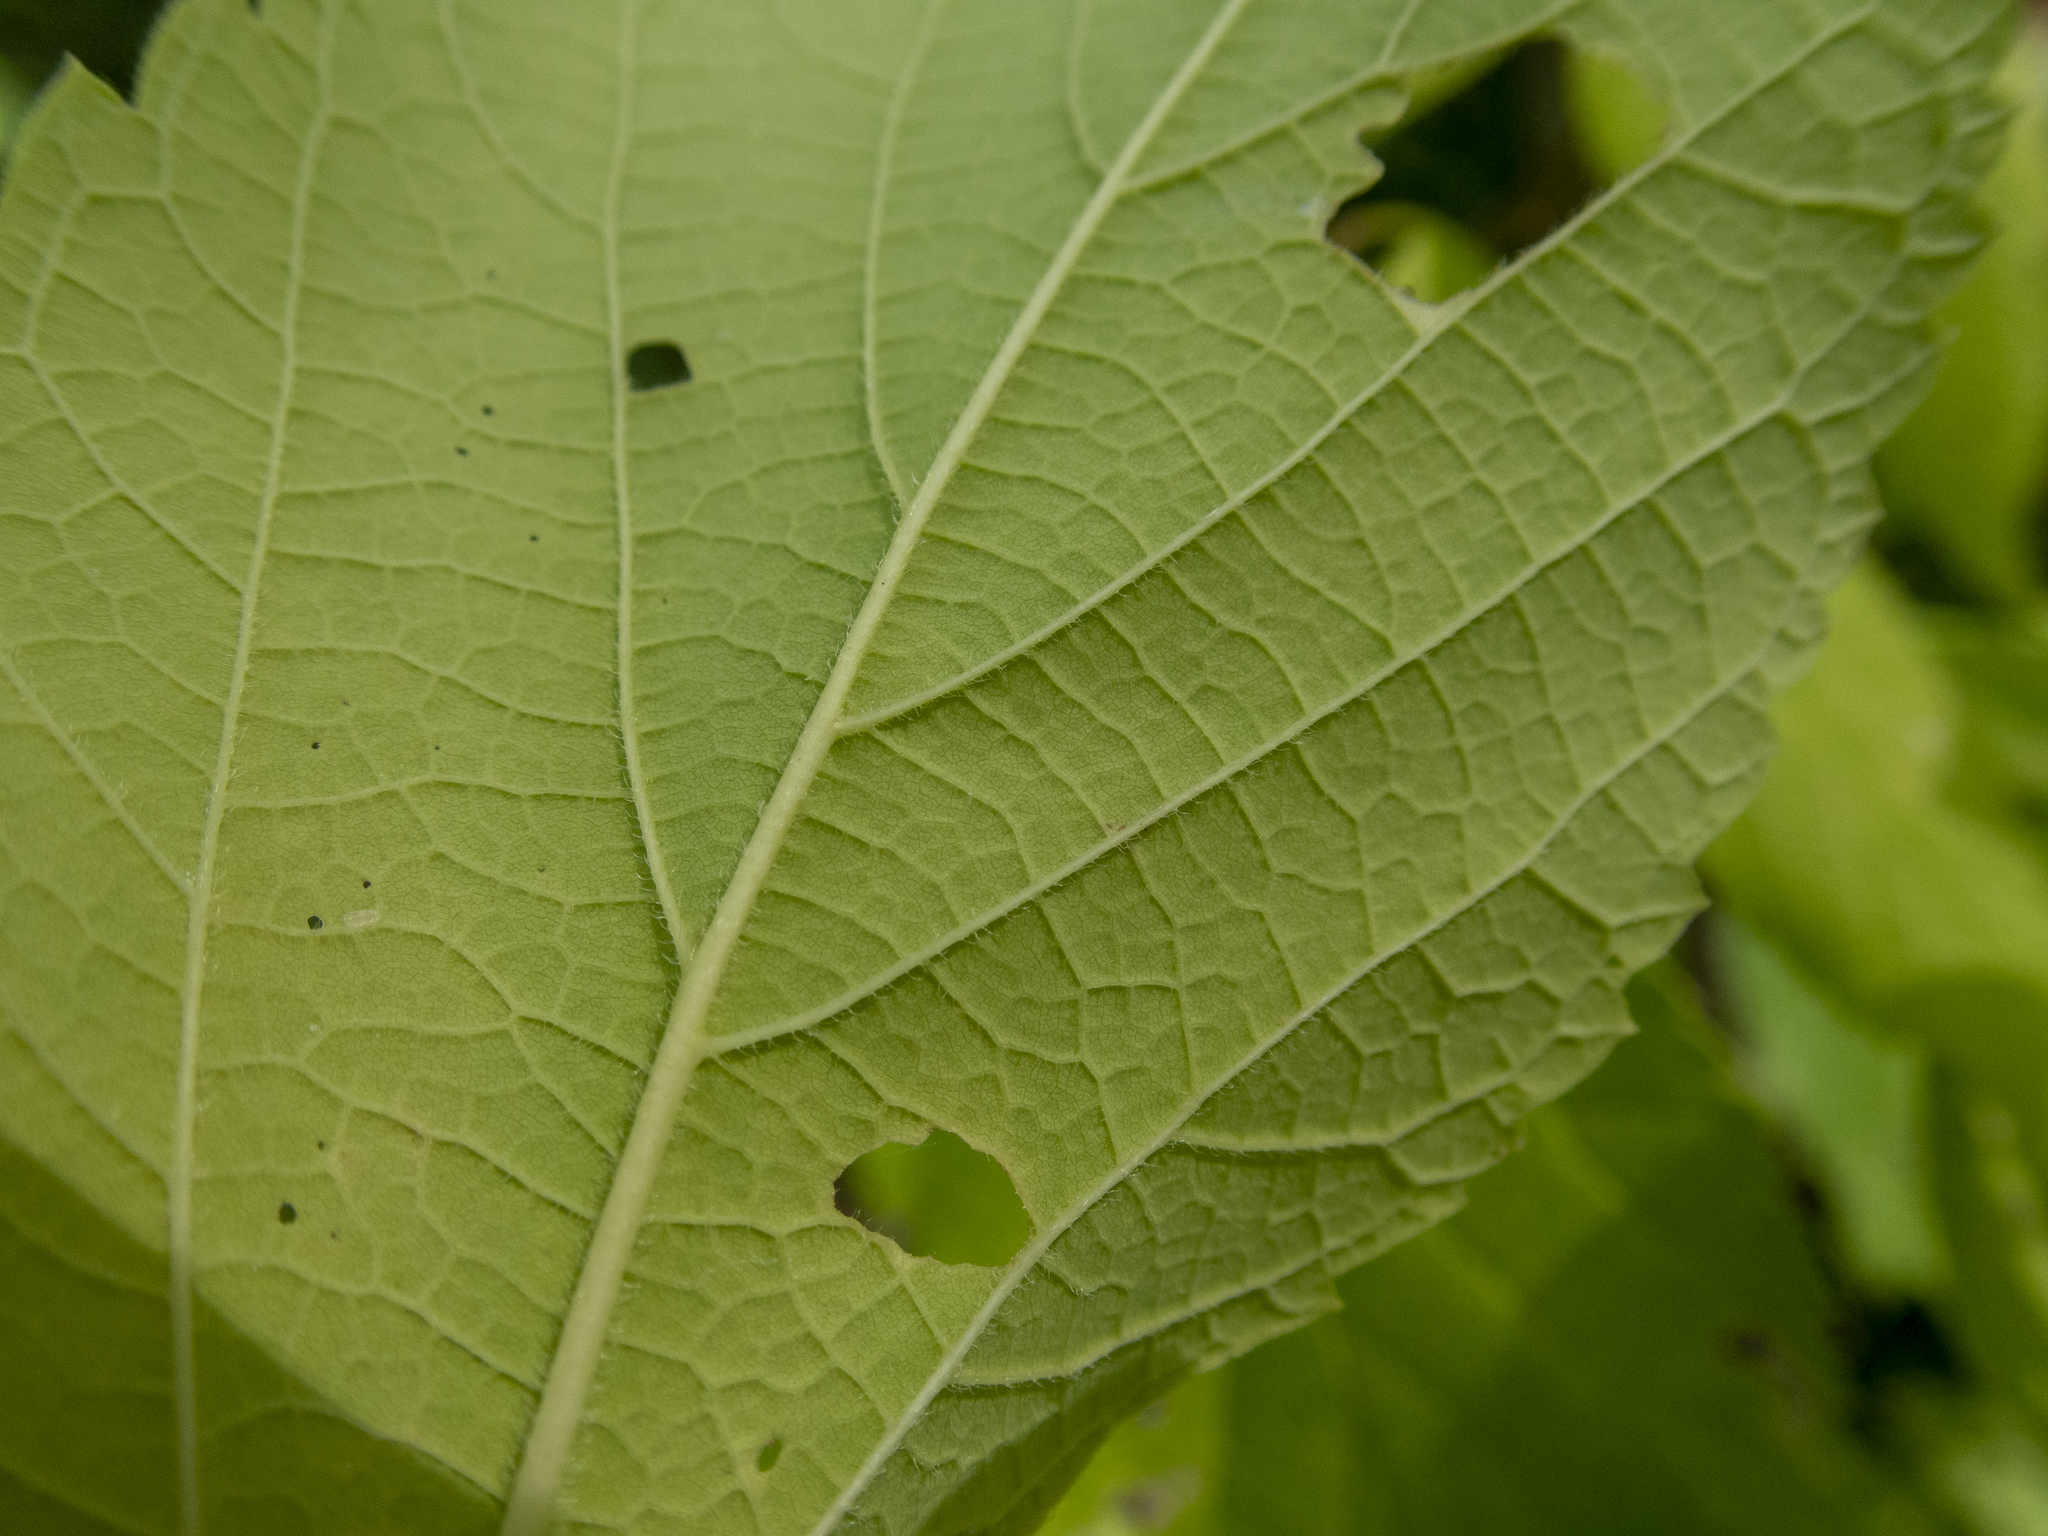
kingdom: Plantae
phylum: Tracheophyta
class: Magnoliopsida
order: Rosales
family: Cannabaceae
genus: Celtis
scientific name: Celtis occidentalis
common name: Common hackberry
